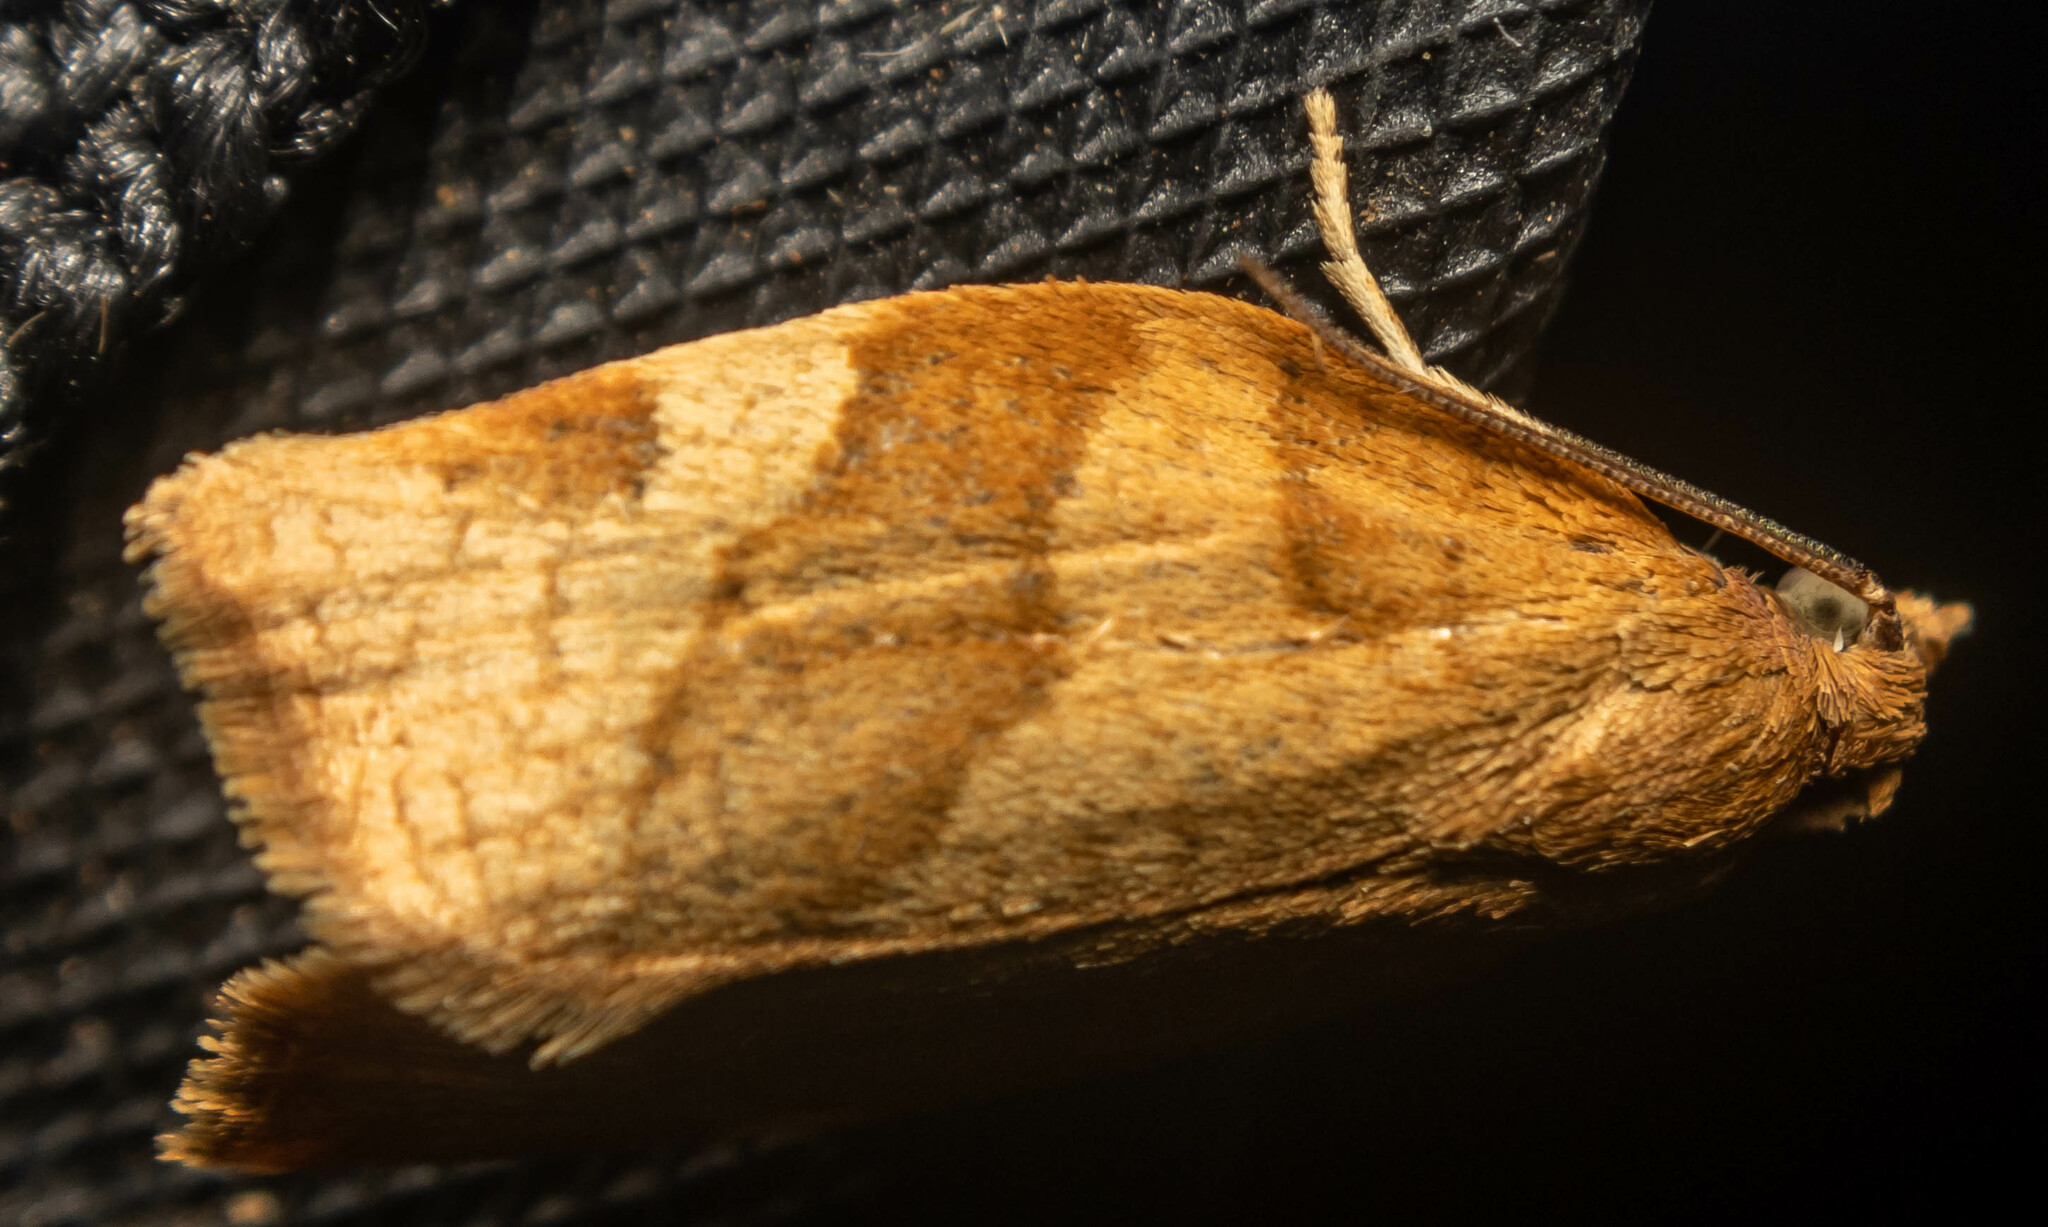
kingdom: Animalia
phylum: Arthropoda
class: Insecta
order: Lepidoptera
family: Tortricidae
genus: Pandemis
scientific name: Pandemis cerasana
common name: Barred fruit-tree tortrix
